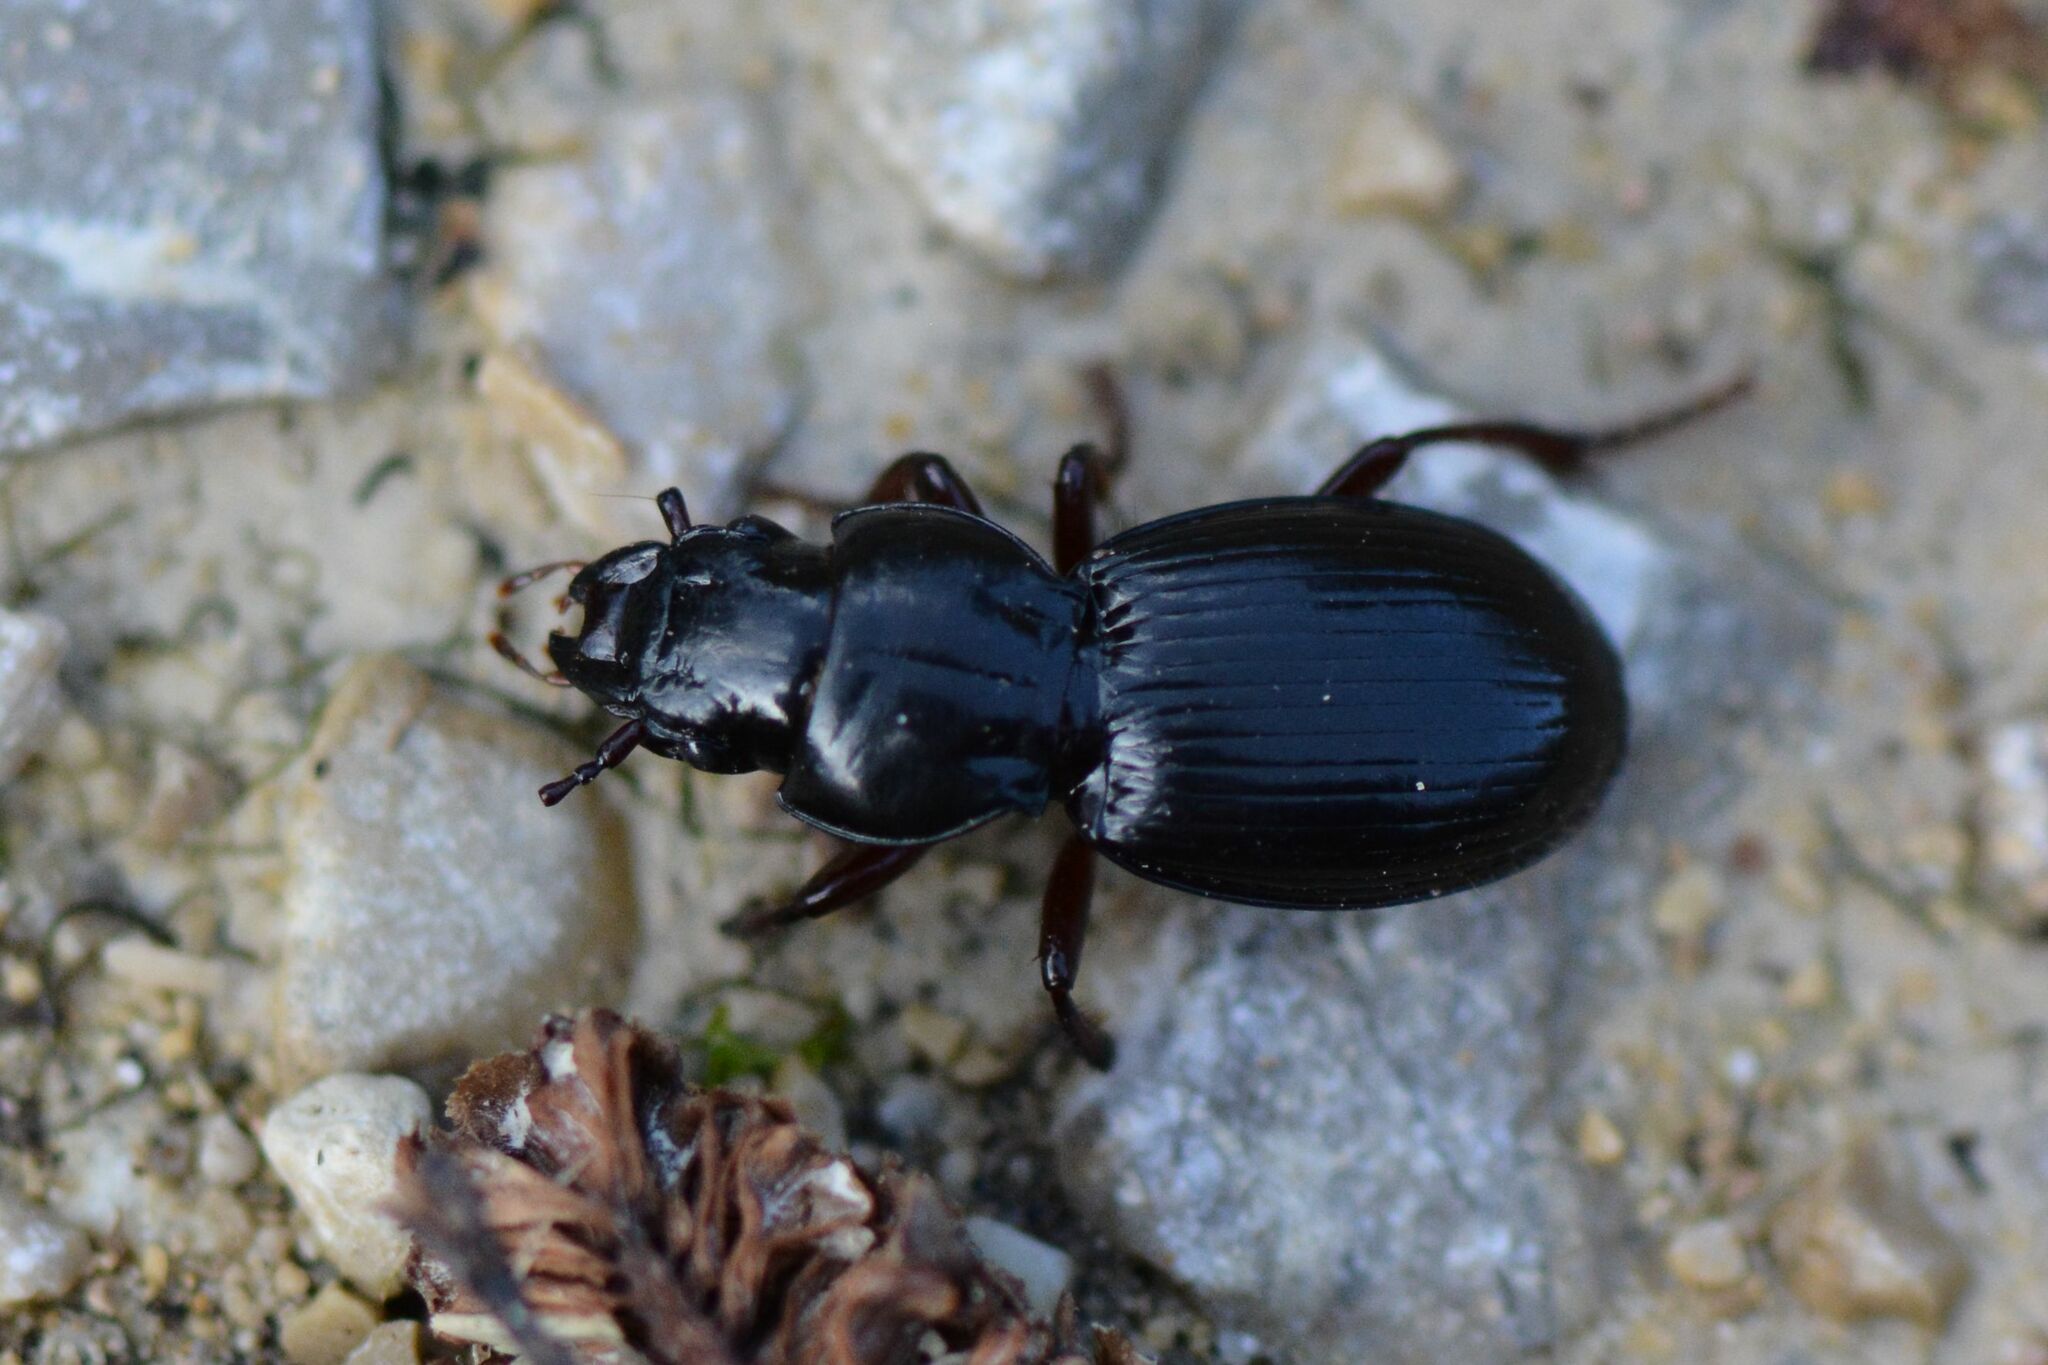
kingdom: Animalia
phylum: Arthropoda
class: Insecta
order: Coleoptera
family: Carabidae
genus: Molops
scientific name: Molops piceus
